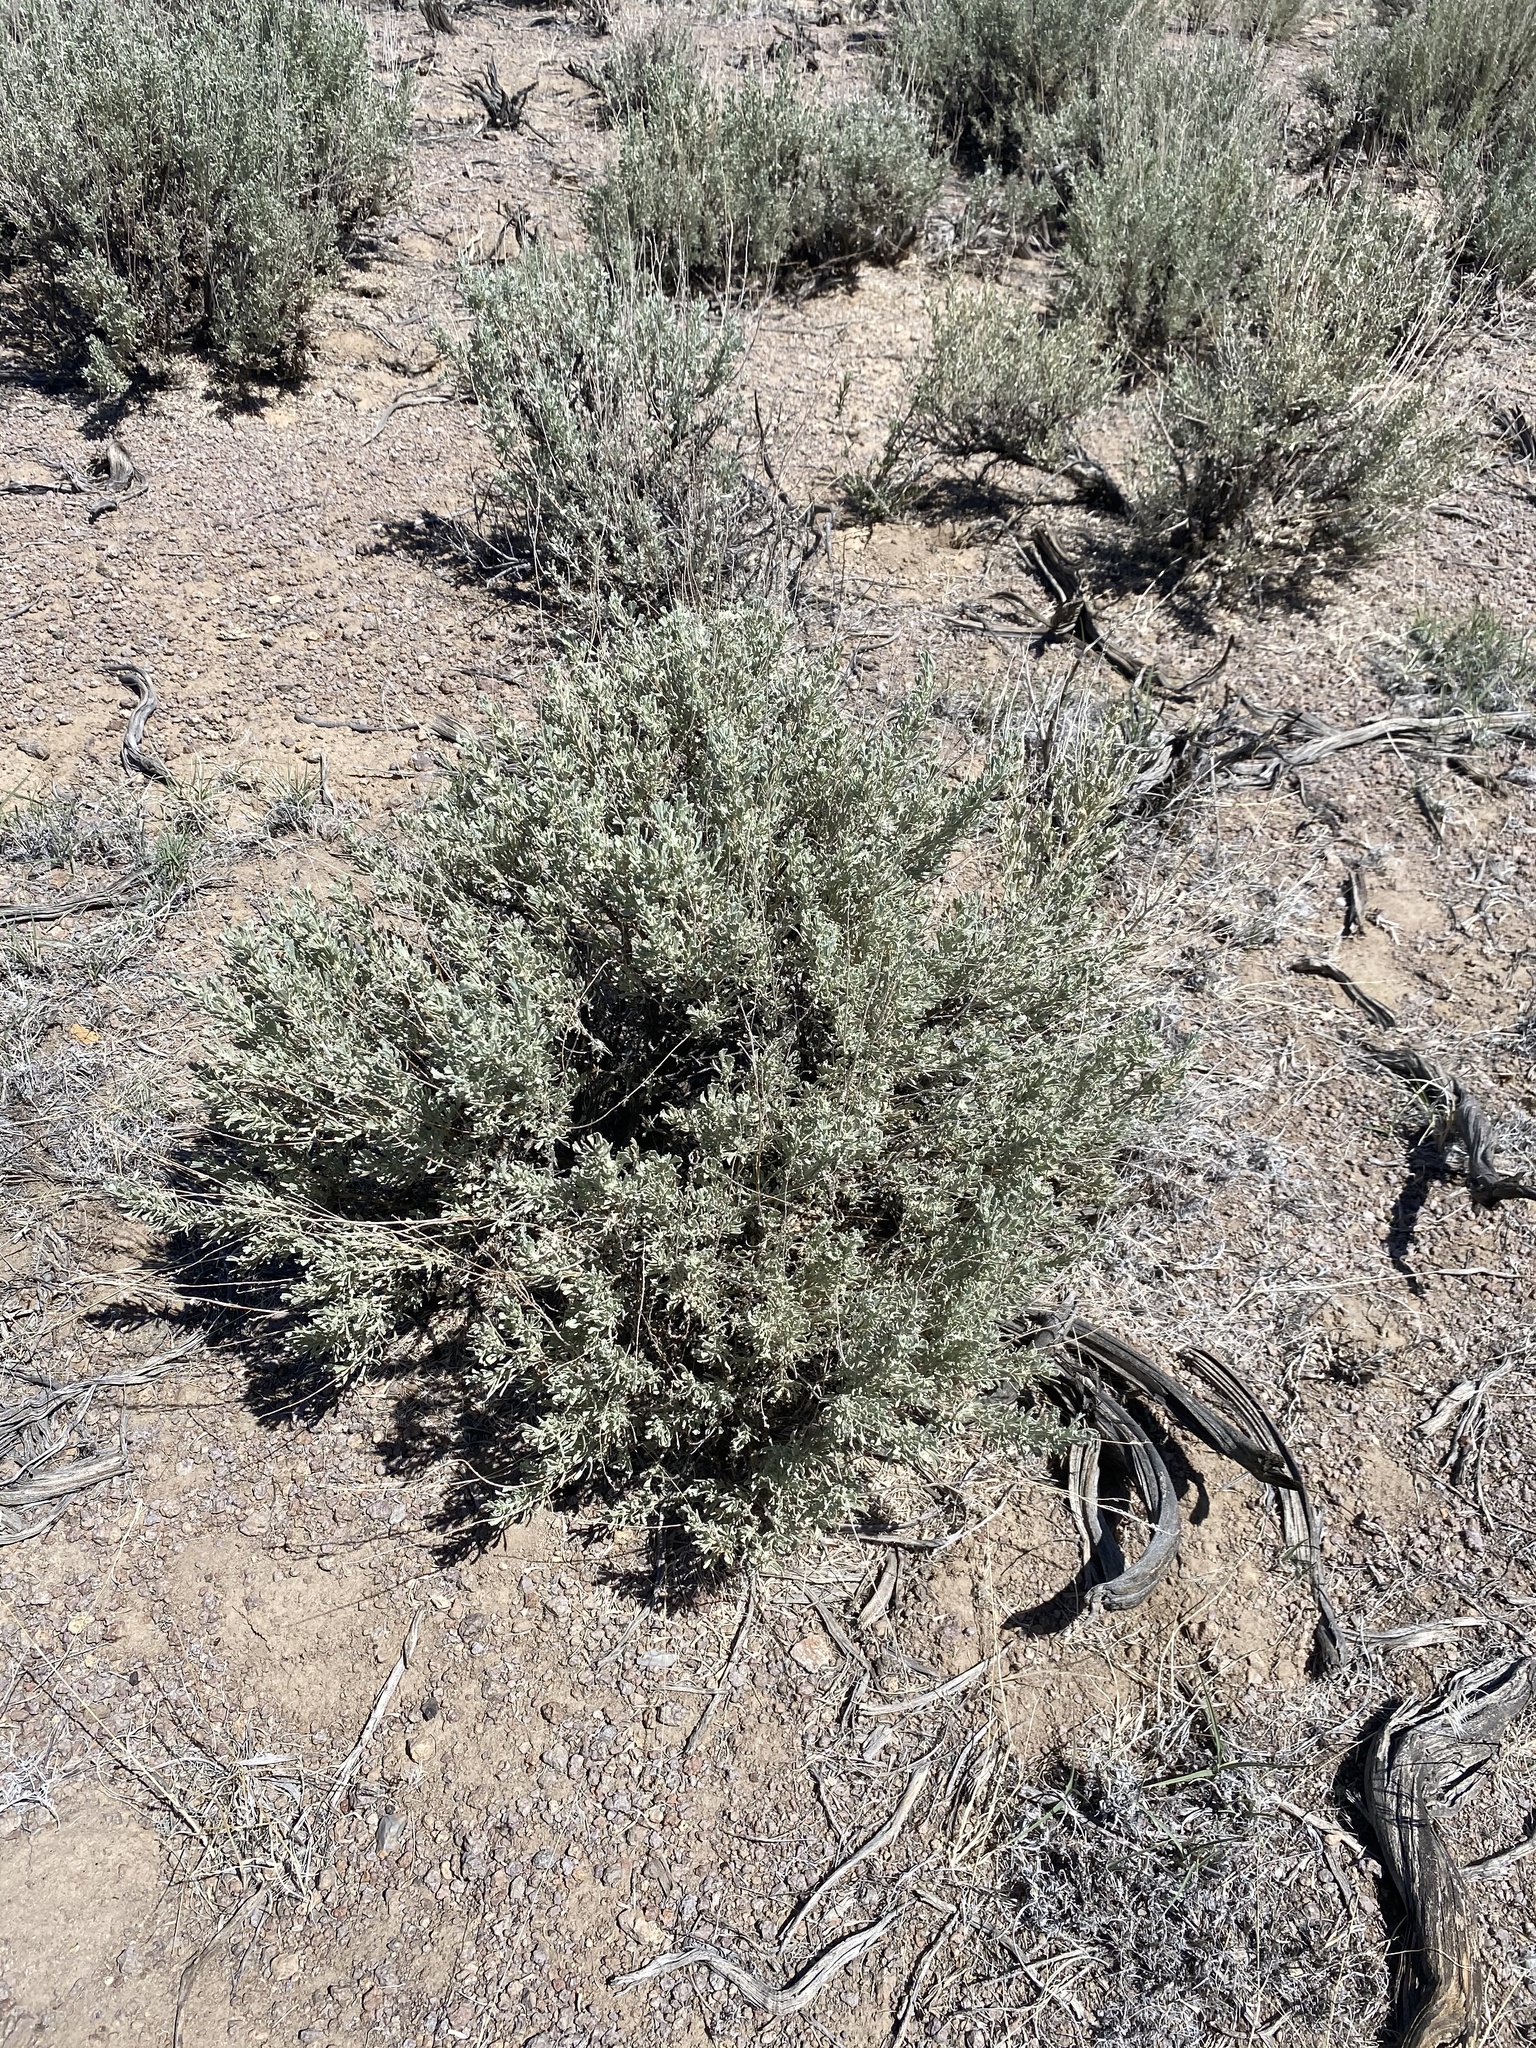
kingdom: Plantae
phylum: Tracheophyta
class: Magnoliopsida
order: Asterales
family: Asteraceae
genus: Artemisia
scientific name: Artemisia tridentata
